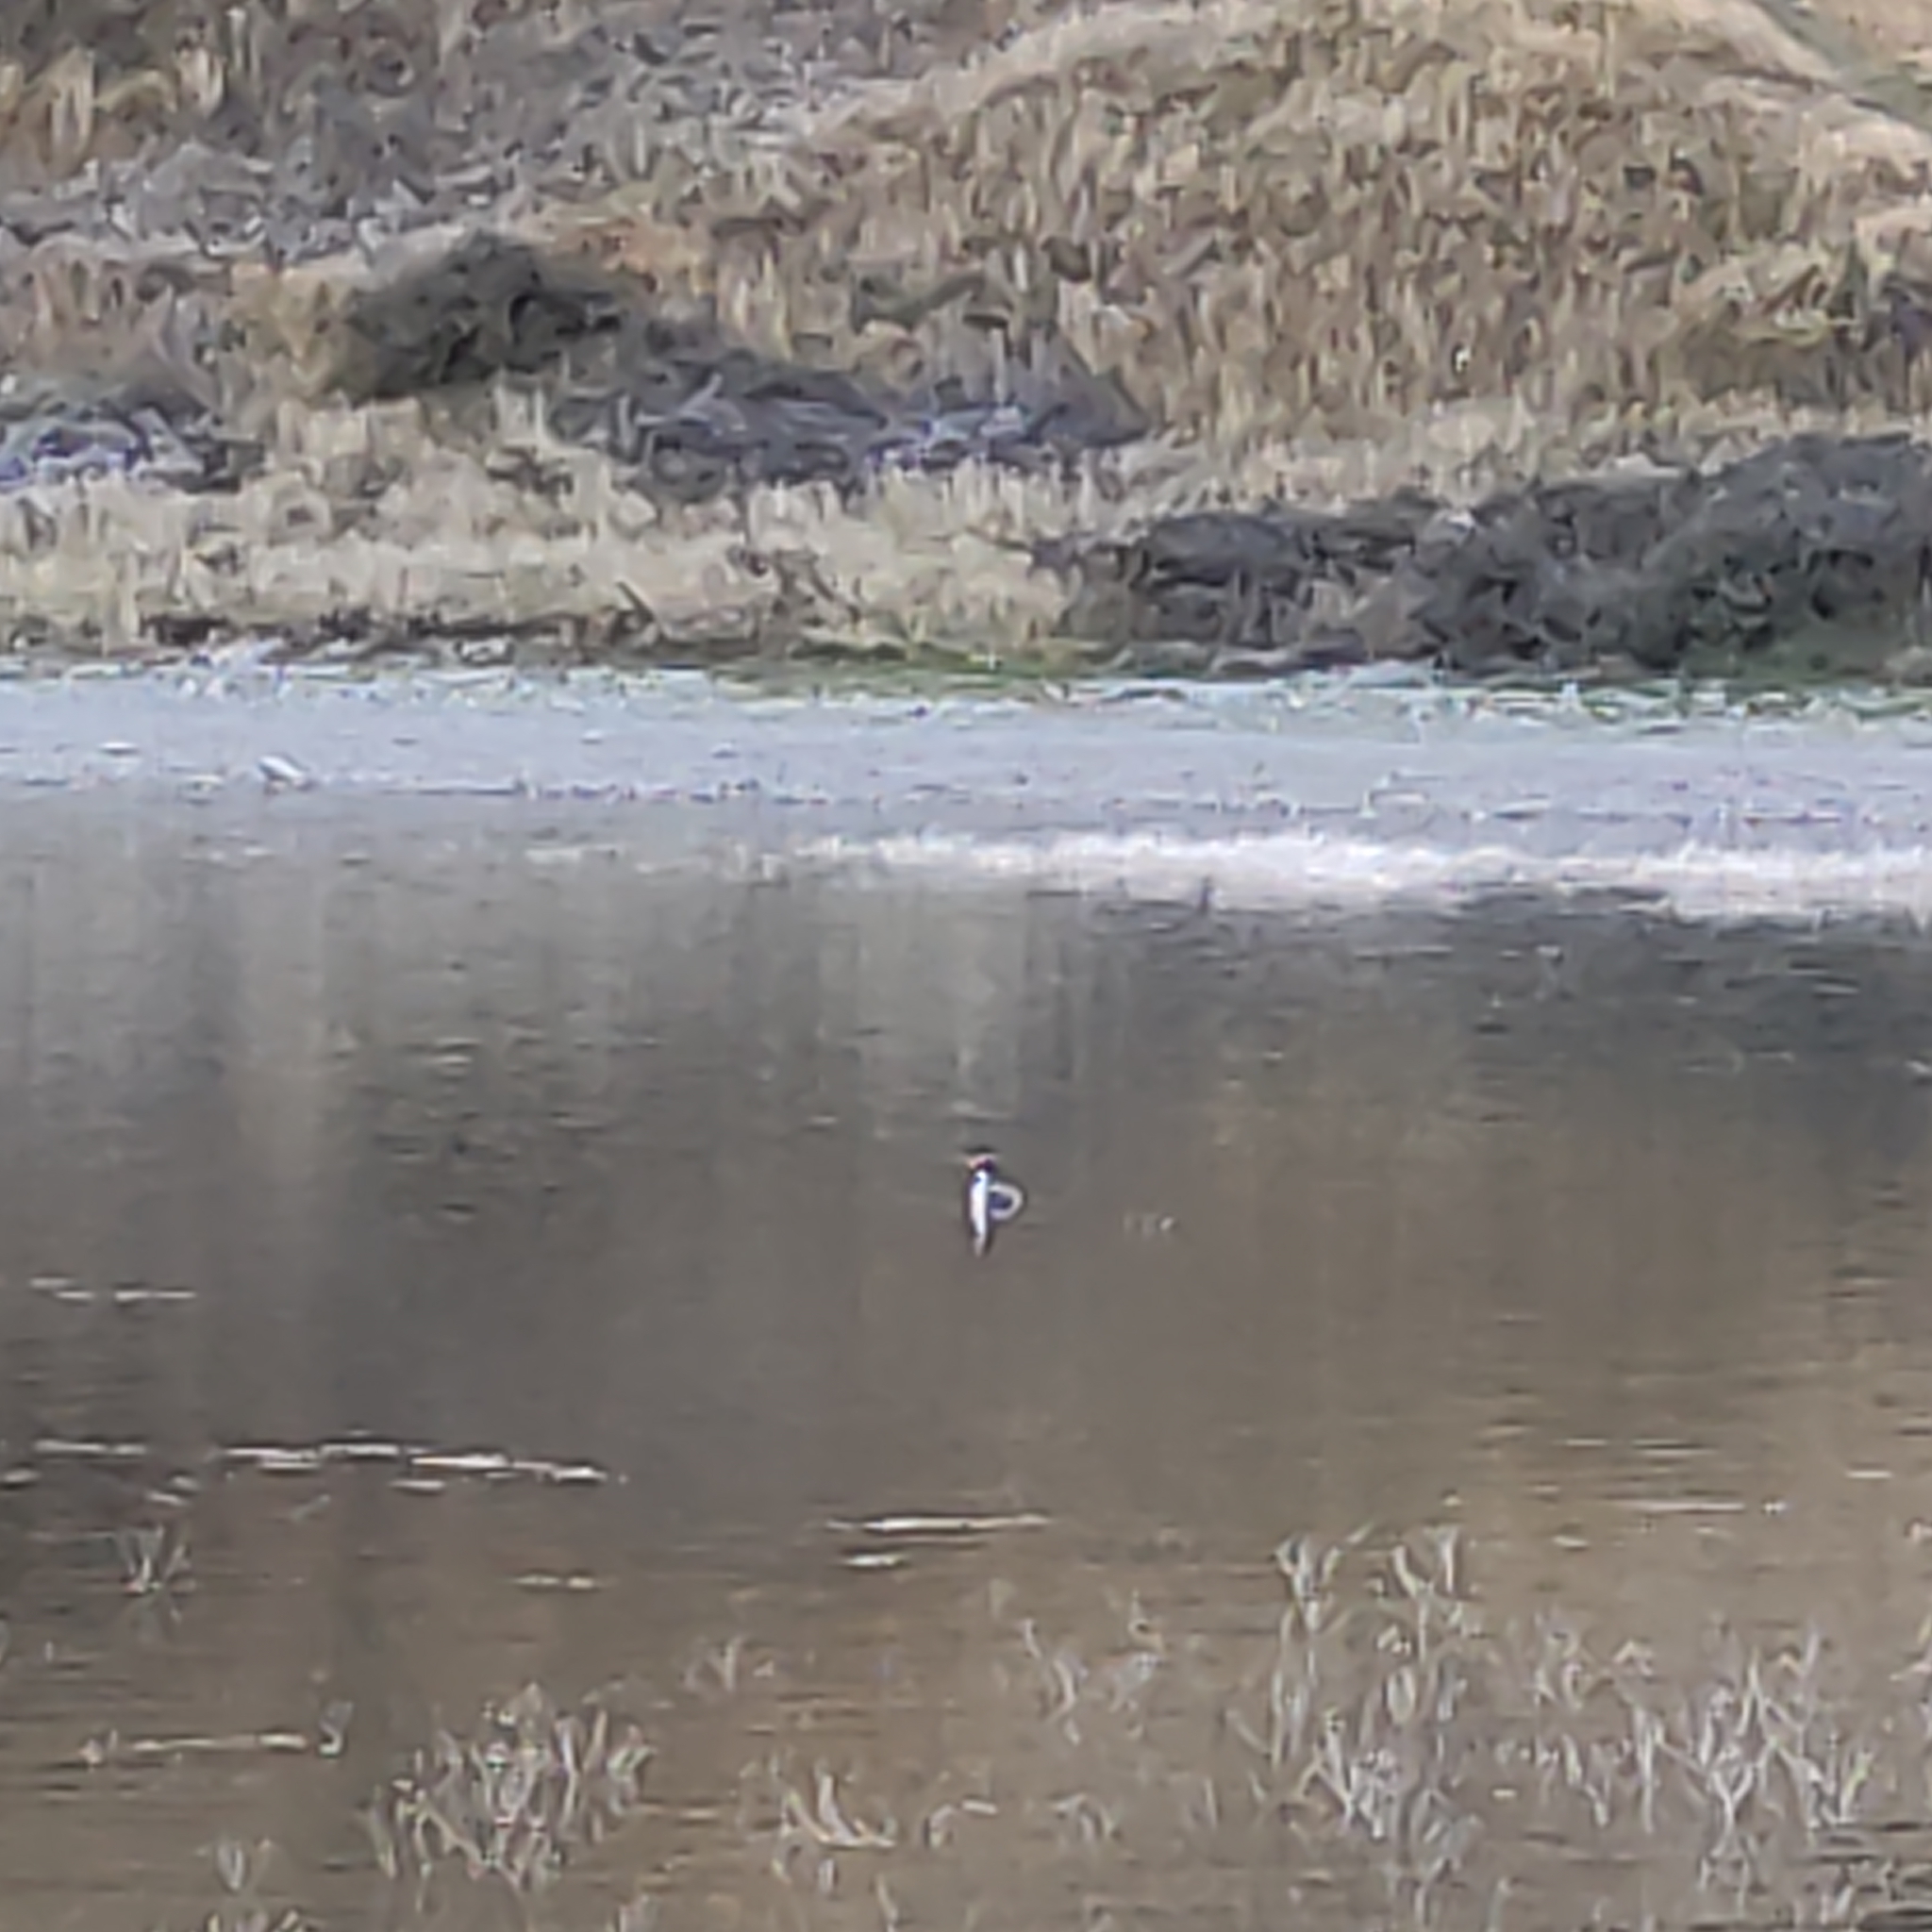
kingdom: Animalia
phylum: Chordata
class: Aves
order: Podicipediformes
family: Podicipedidae
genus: Podiceps
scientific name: Podiceps cristatus
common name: Great crested grebe
